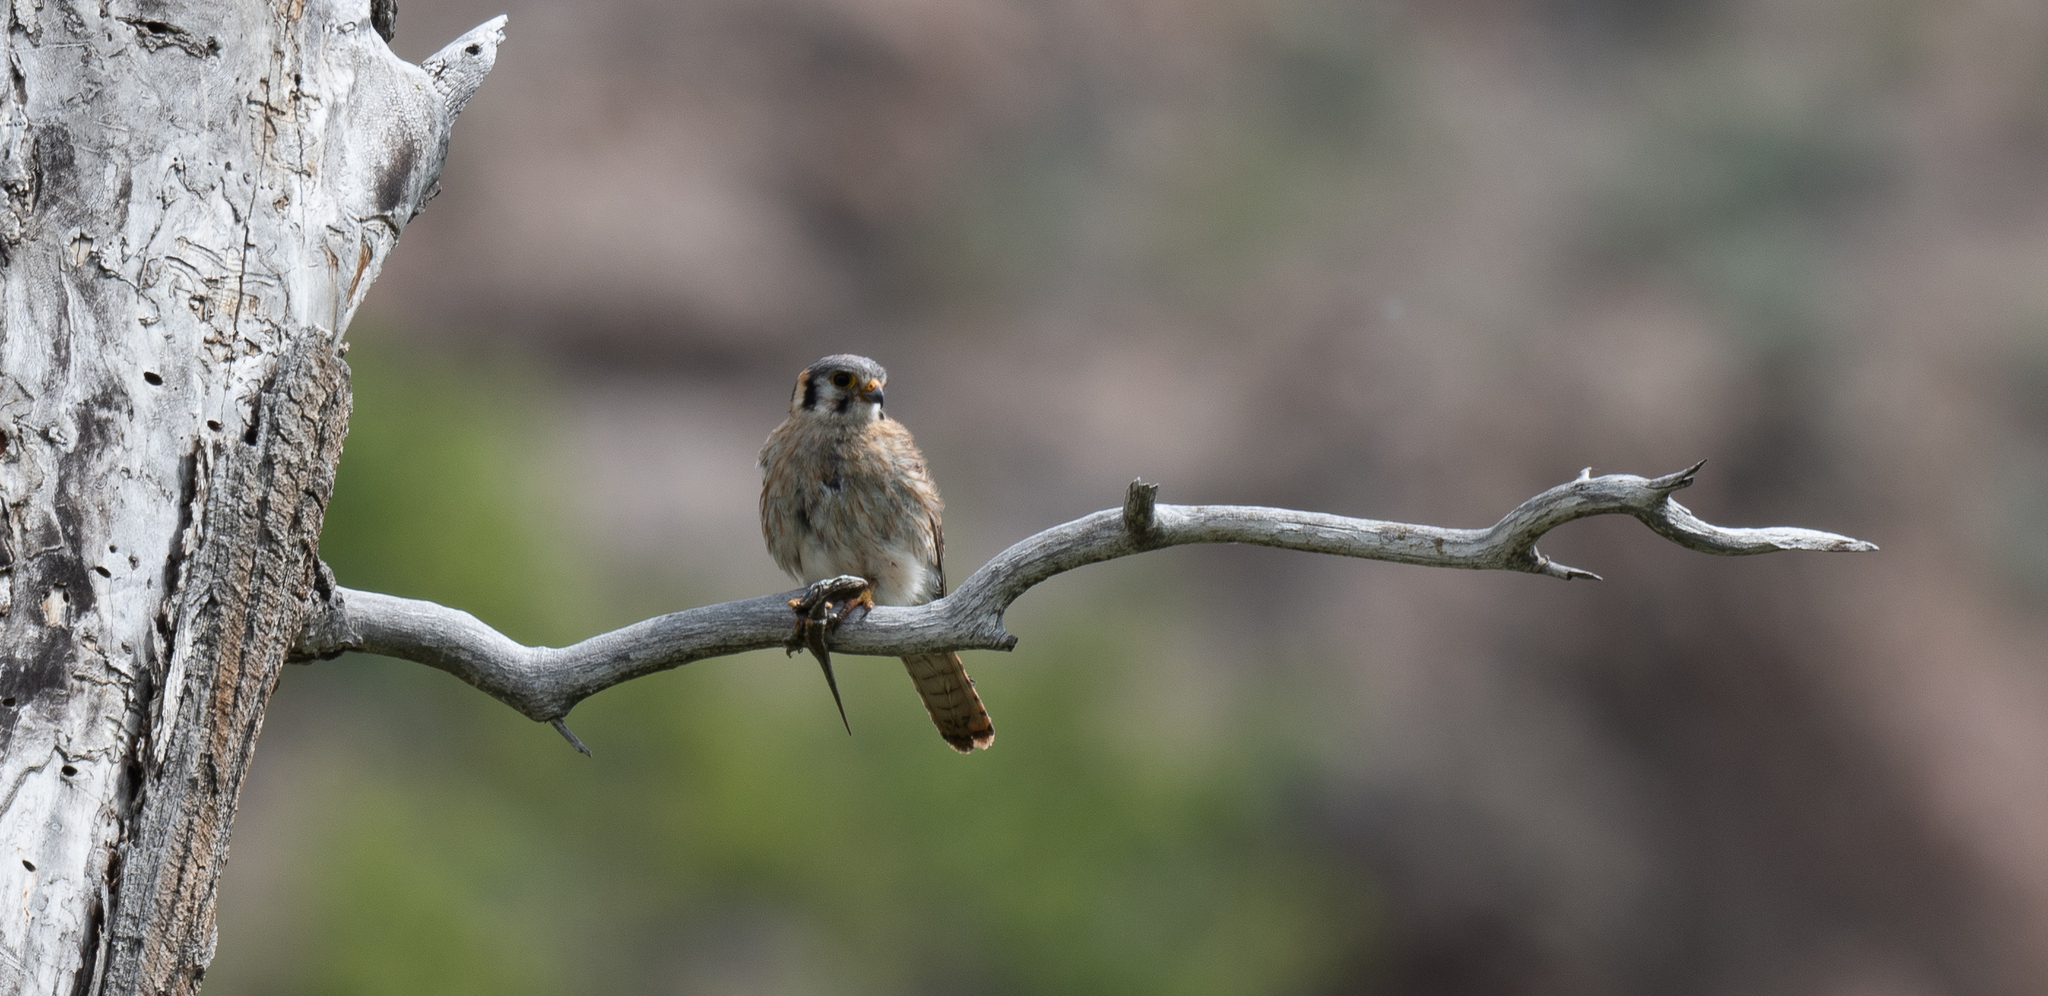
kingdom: Animalia
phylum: Chordata
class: Aves
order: Falconiformes
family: Falconidae
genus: Falco
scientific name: Falco sparverius
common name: American kestrel
